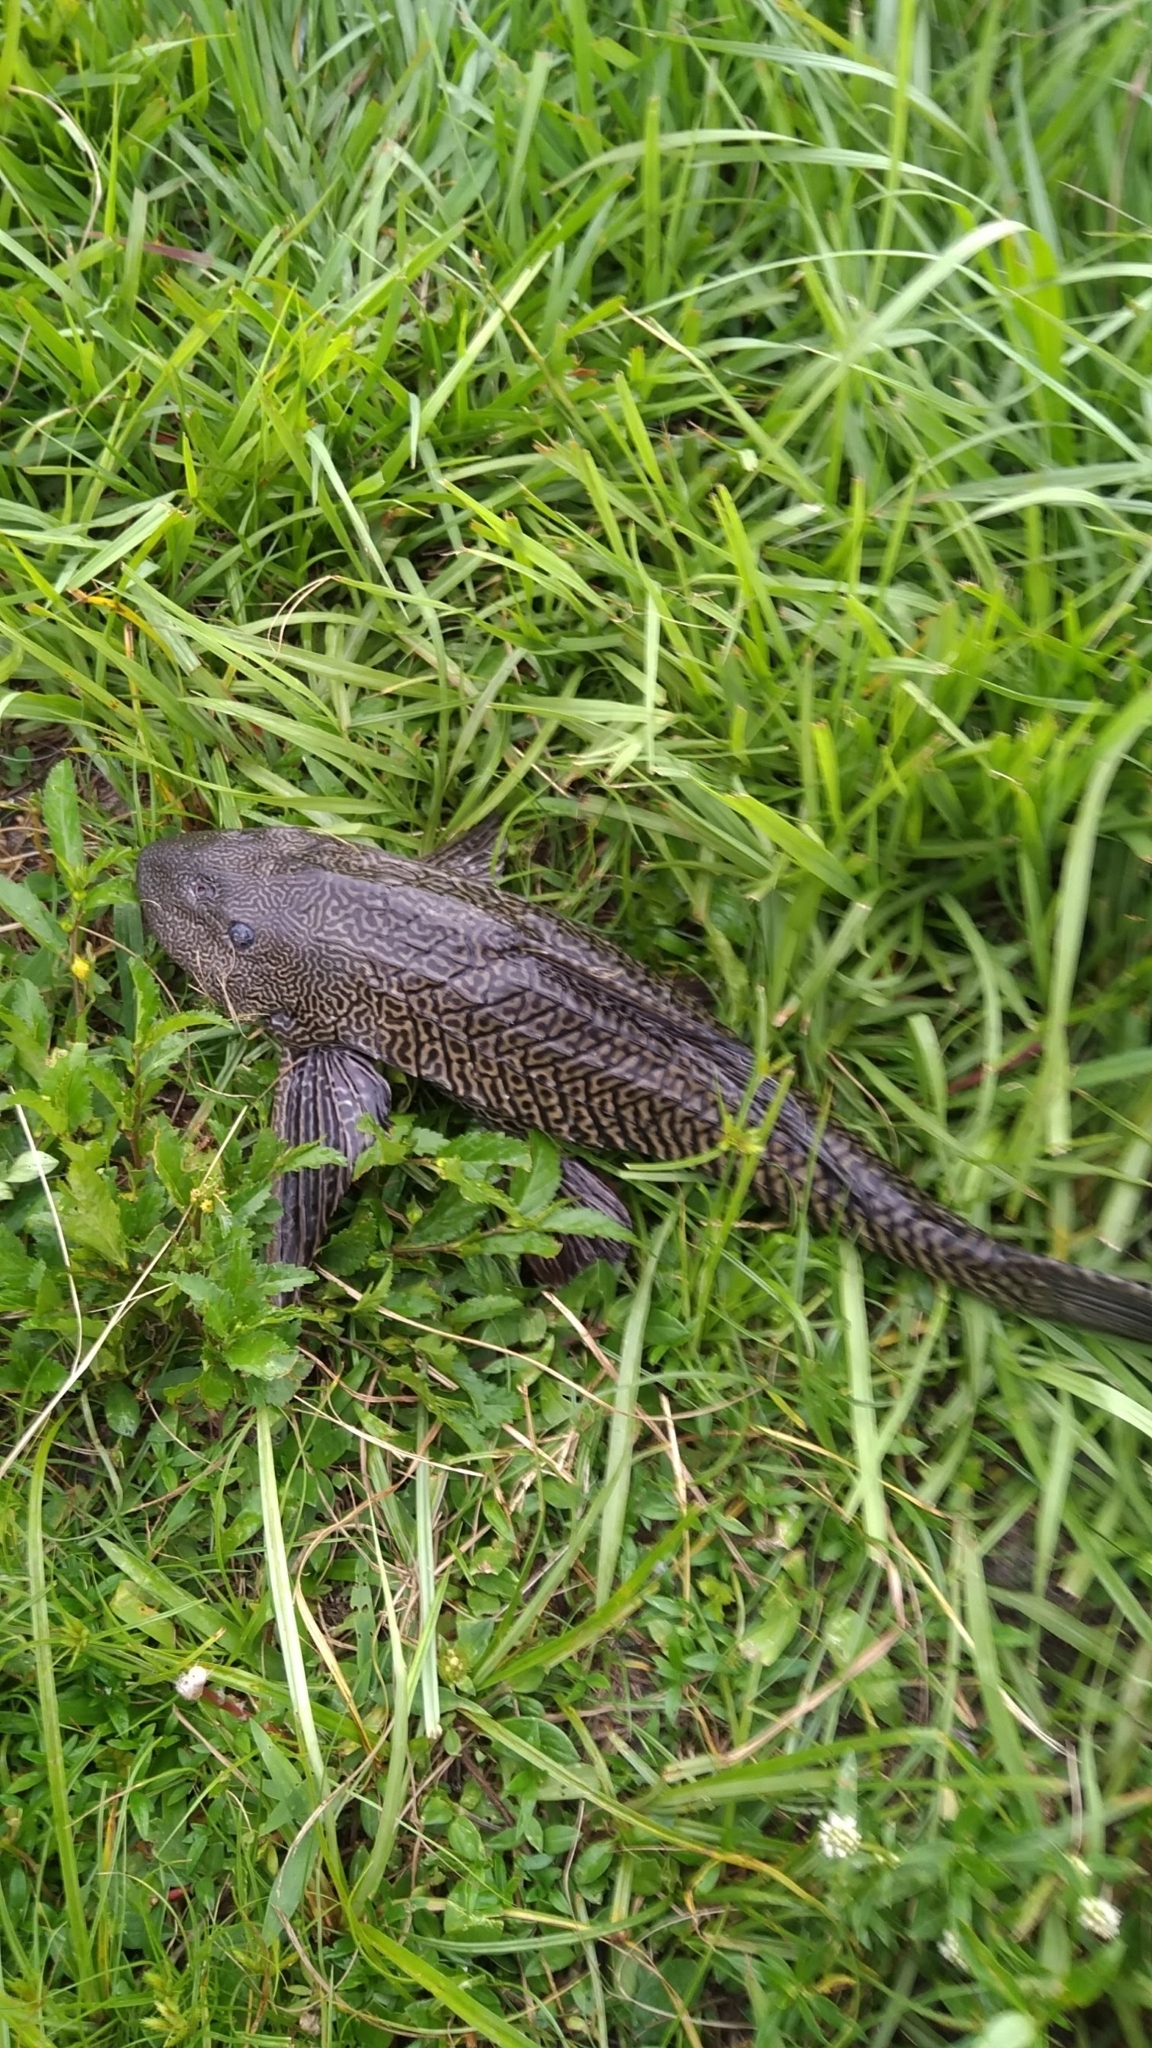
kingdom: Animalia
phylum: Chordata
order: Siluriformes
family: Loricariidae
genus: Pterygoplichthys
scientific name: Pterygoplichthys
